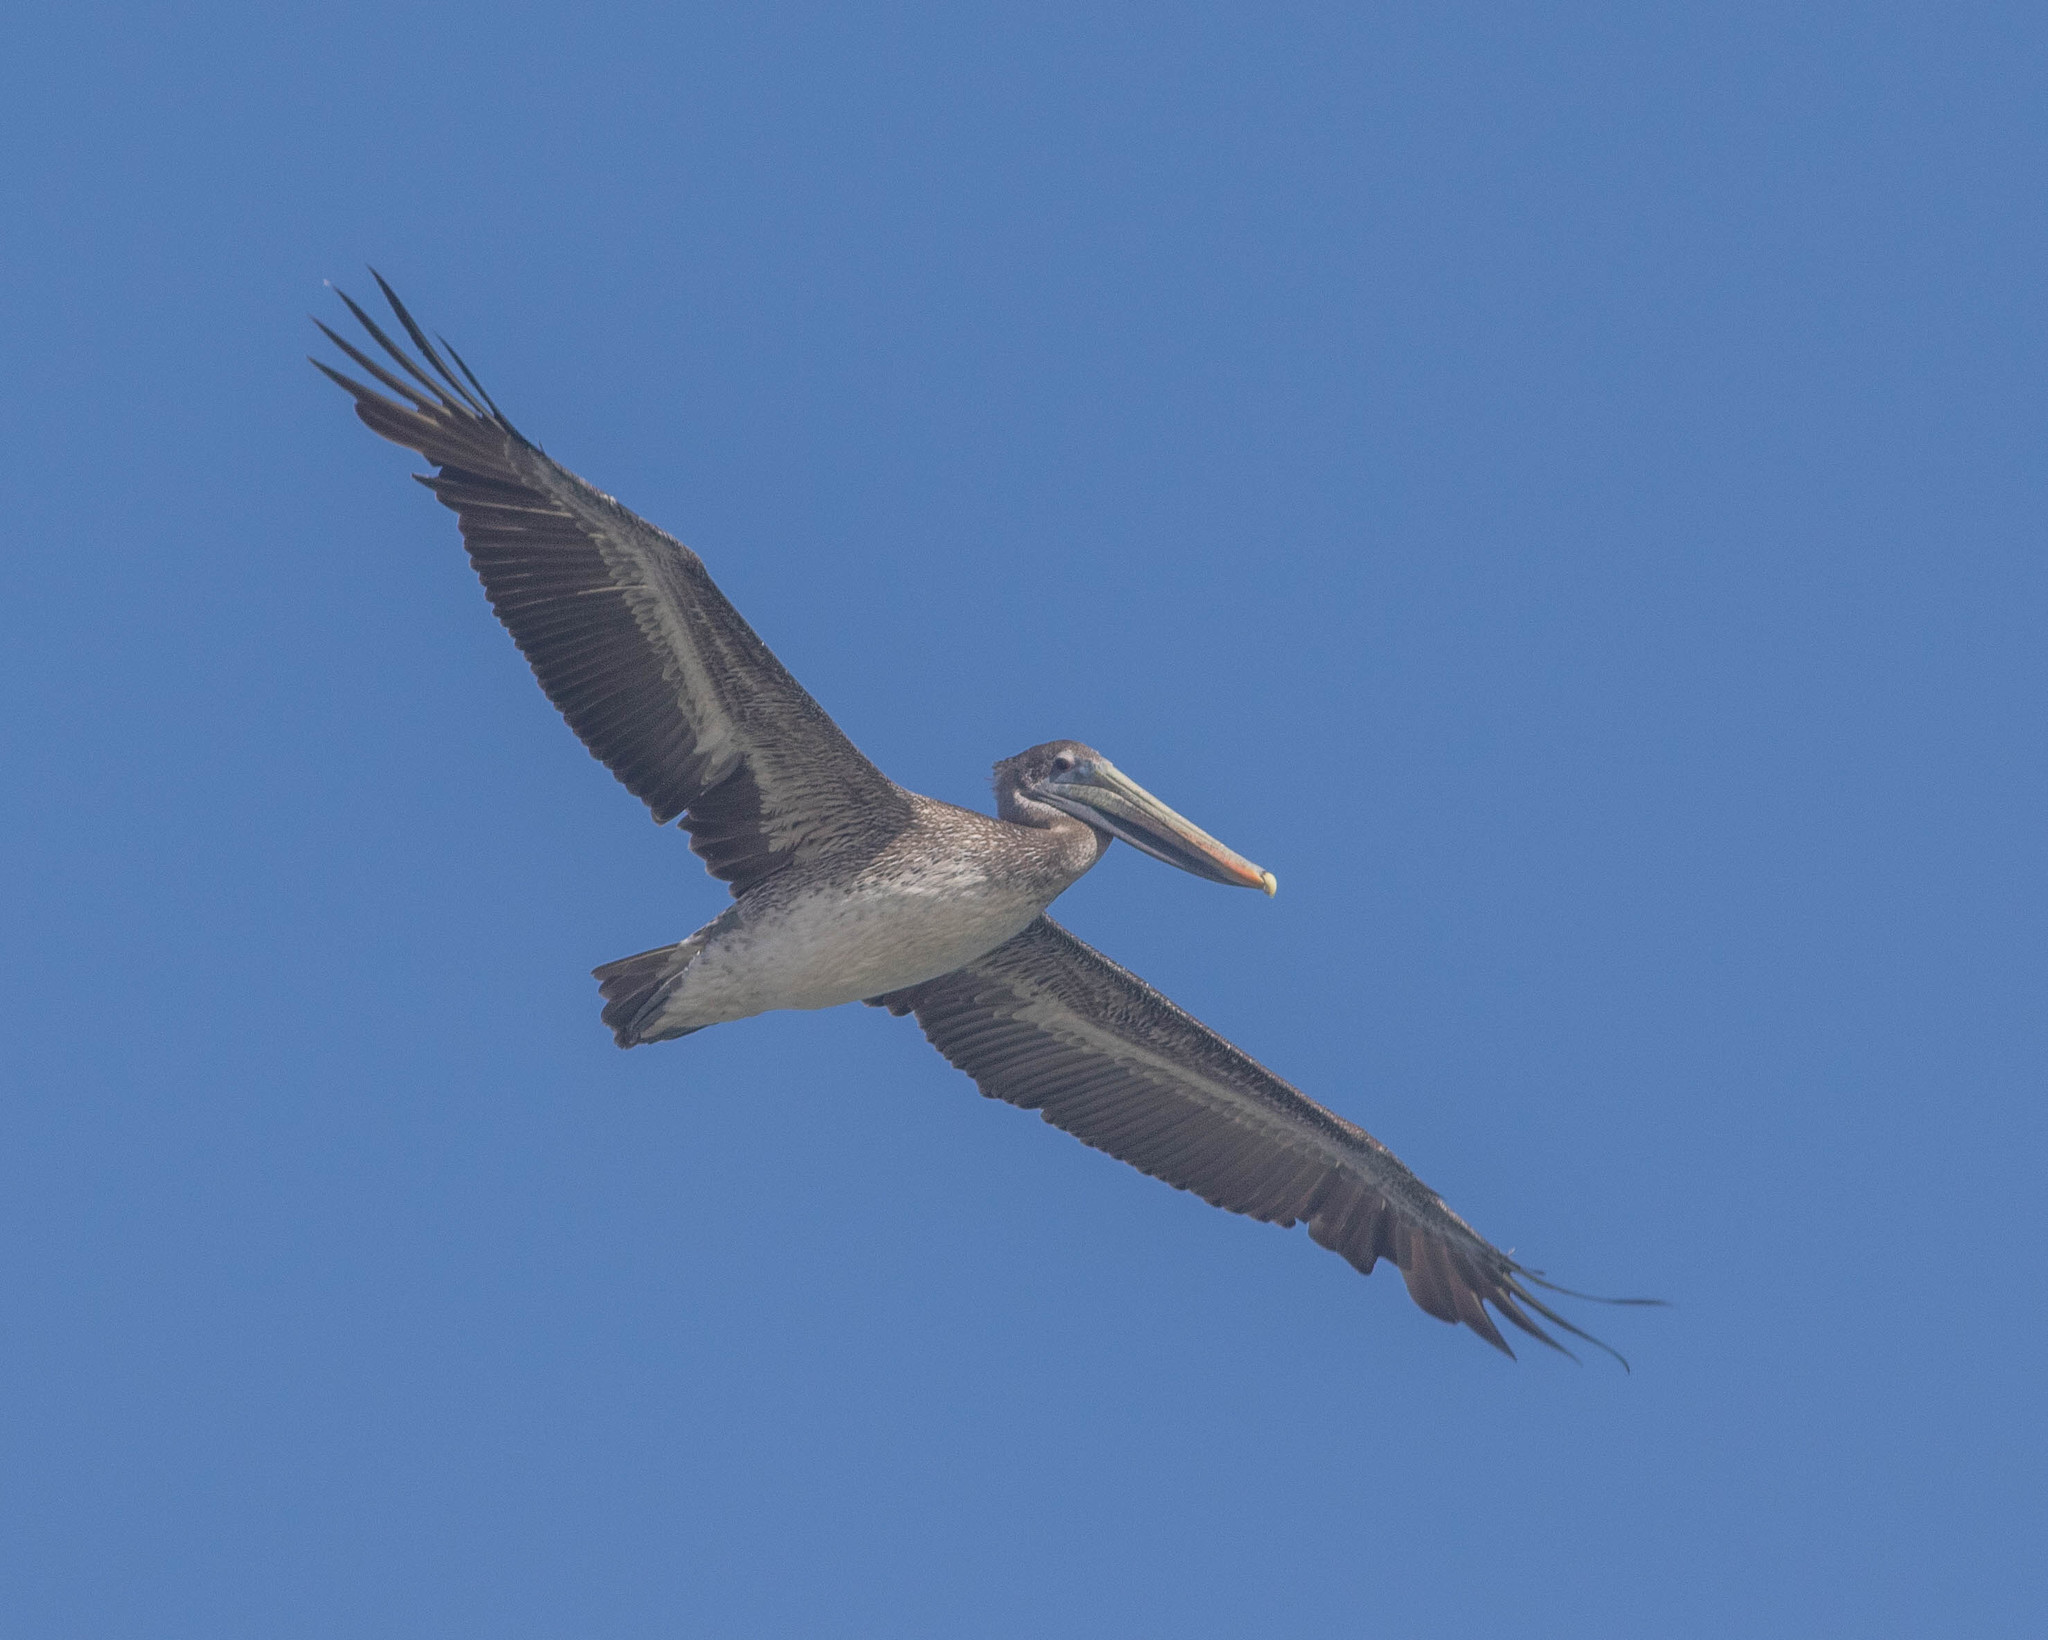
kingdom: Animalia
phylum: Chordata
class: Aves
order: Pelecaniformes
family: Pelecanidae
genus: Pelecanus
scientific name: Pelecanus occidentalis
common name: Brown pelican
